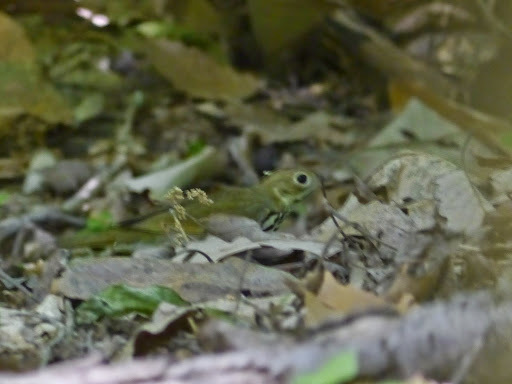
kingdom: Animalia
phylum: Chordata
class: Aves
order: Passeriformes
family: Parulidae
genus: Seiurus
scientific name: Seiurus aurocapilla
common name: Ovenbird
